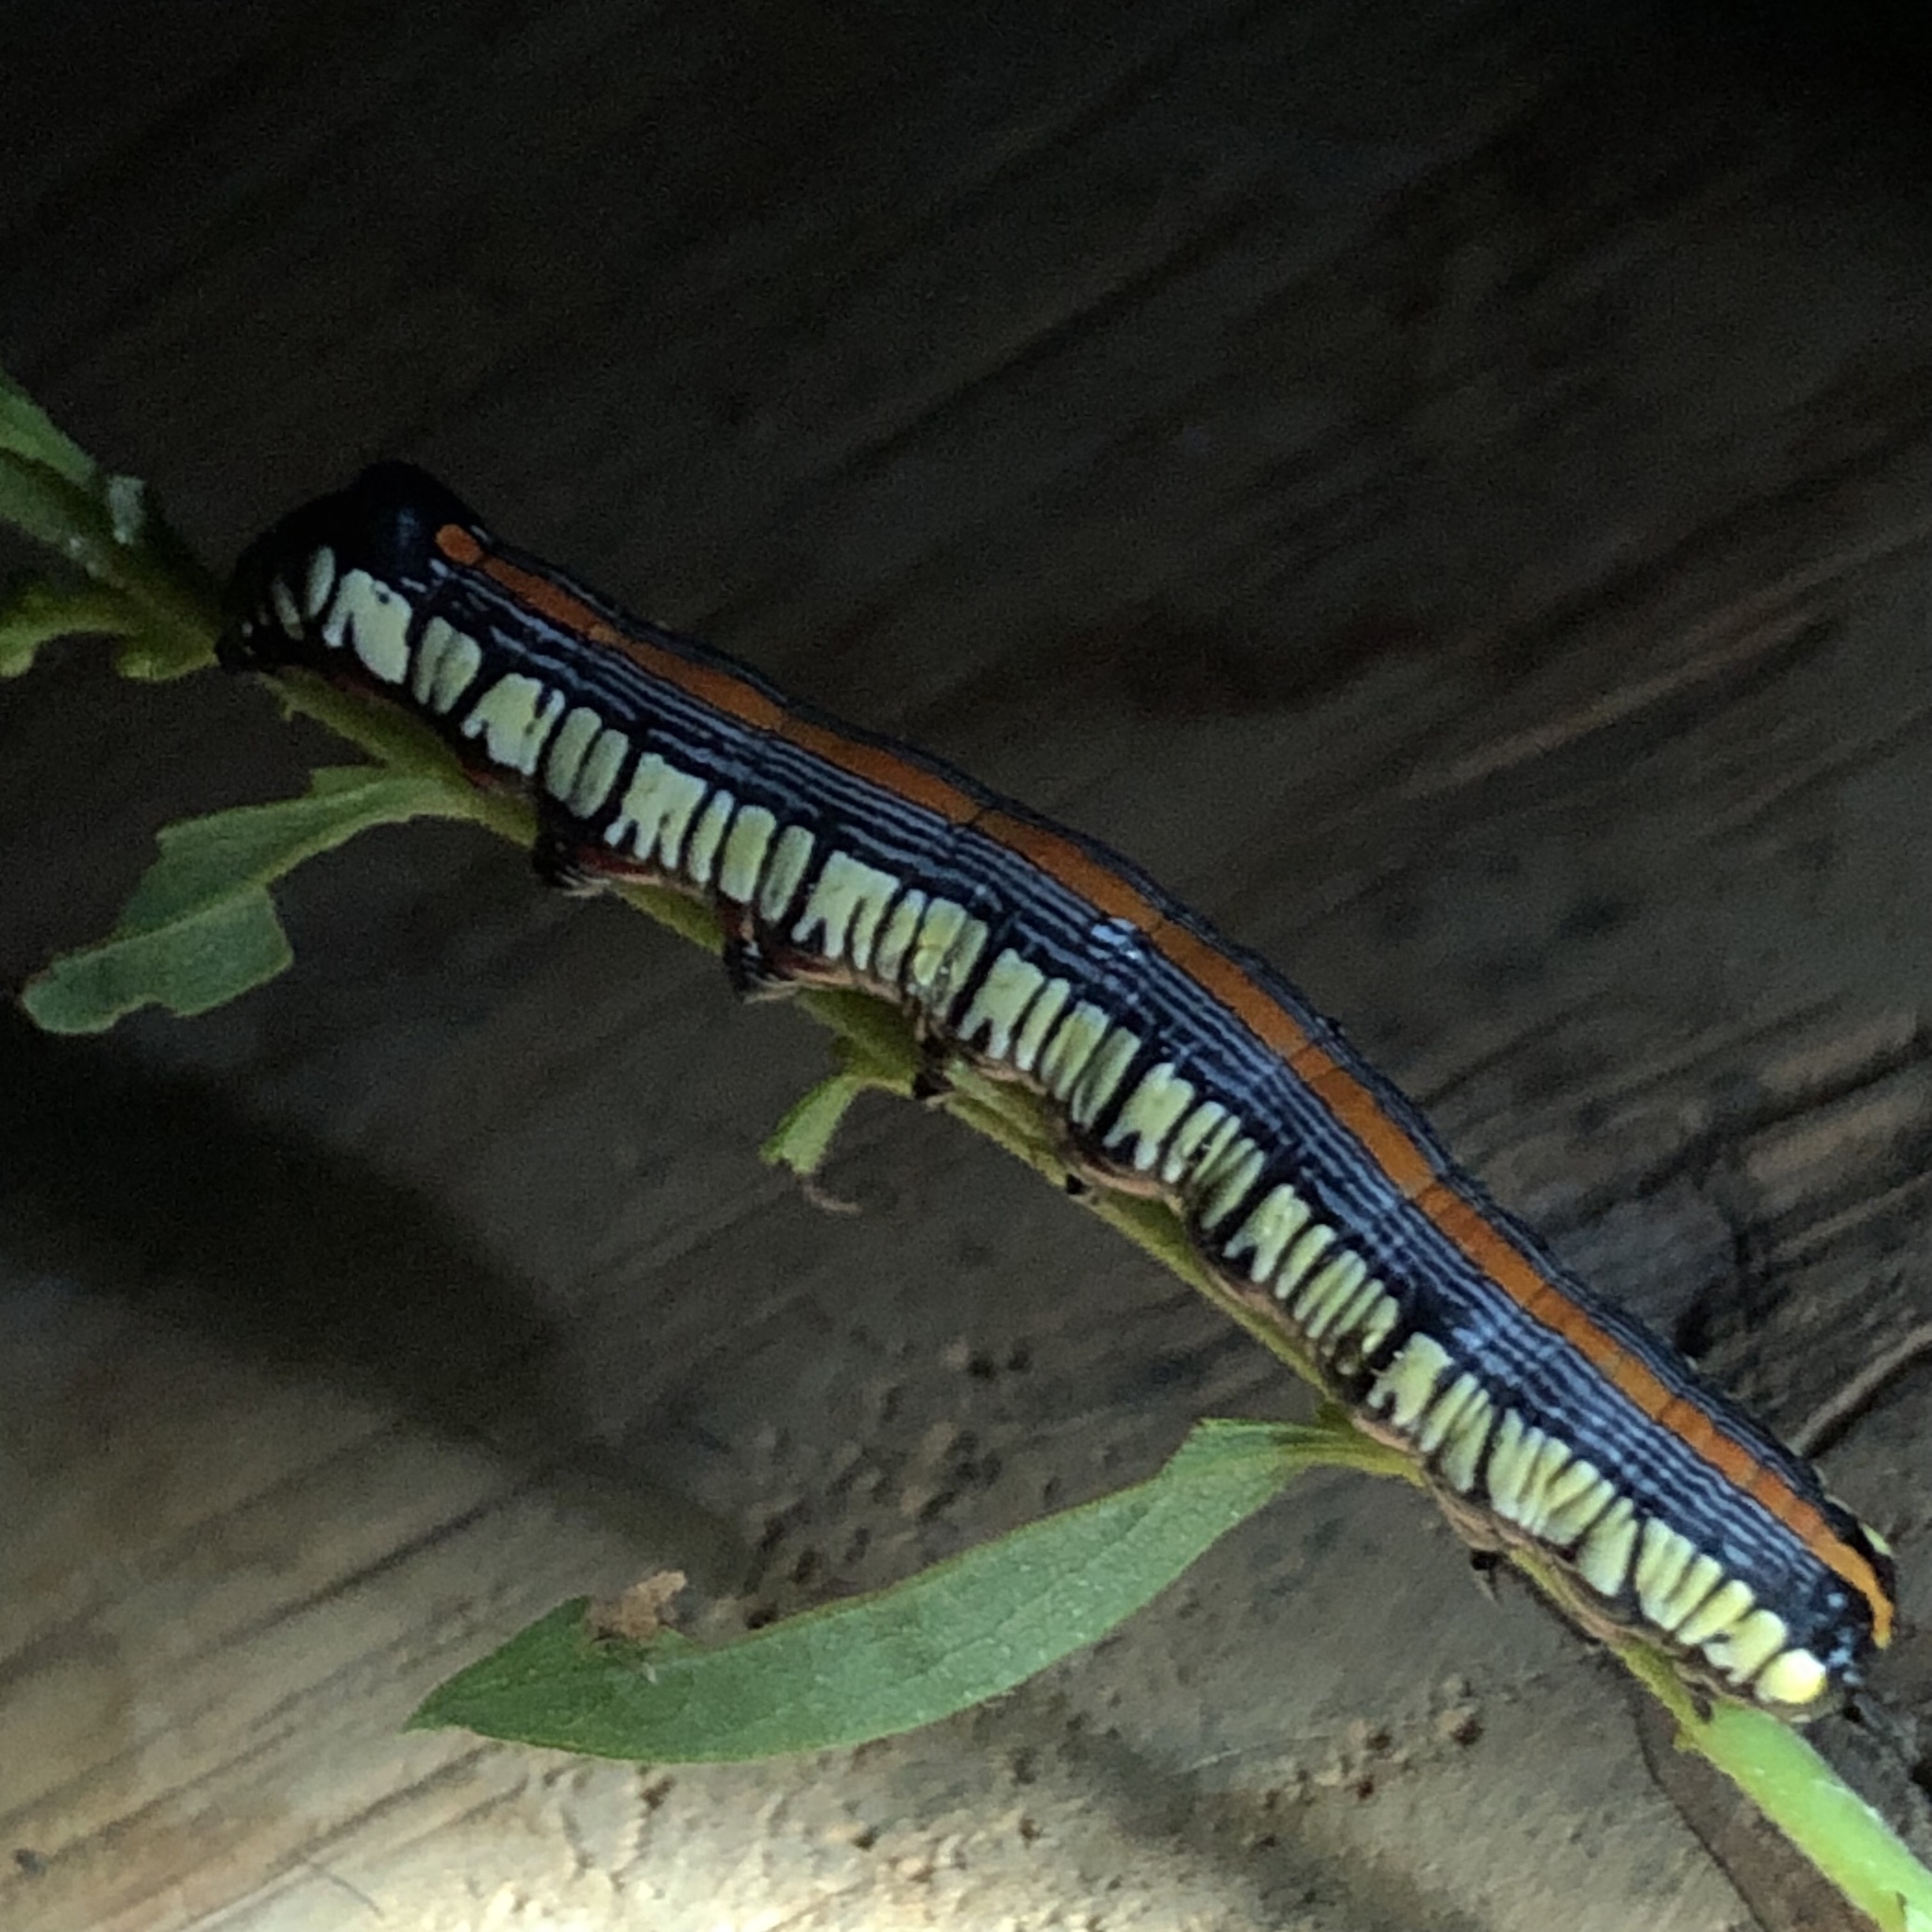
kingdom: Animalia
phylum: Arthropoda
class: Insecta
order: Lepidoptera
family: Noctuidae
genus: Cucullia
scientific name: Cucullia convexipennis
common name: Brown-hooded owlet
